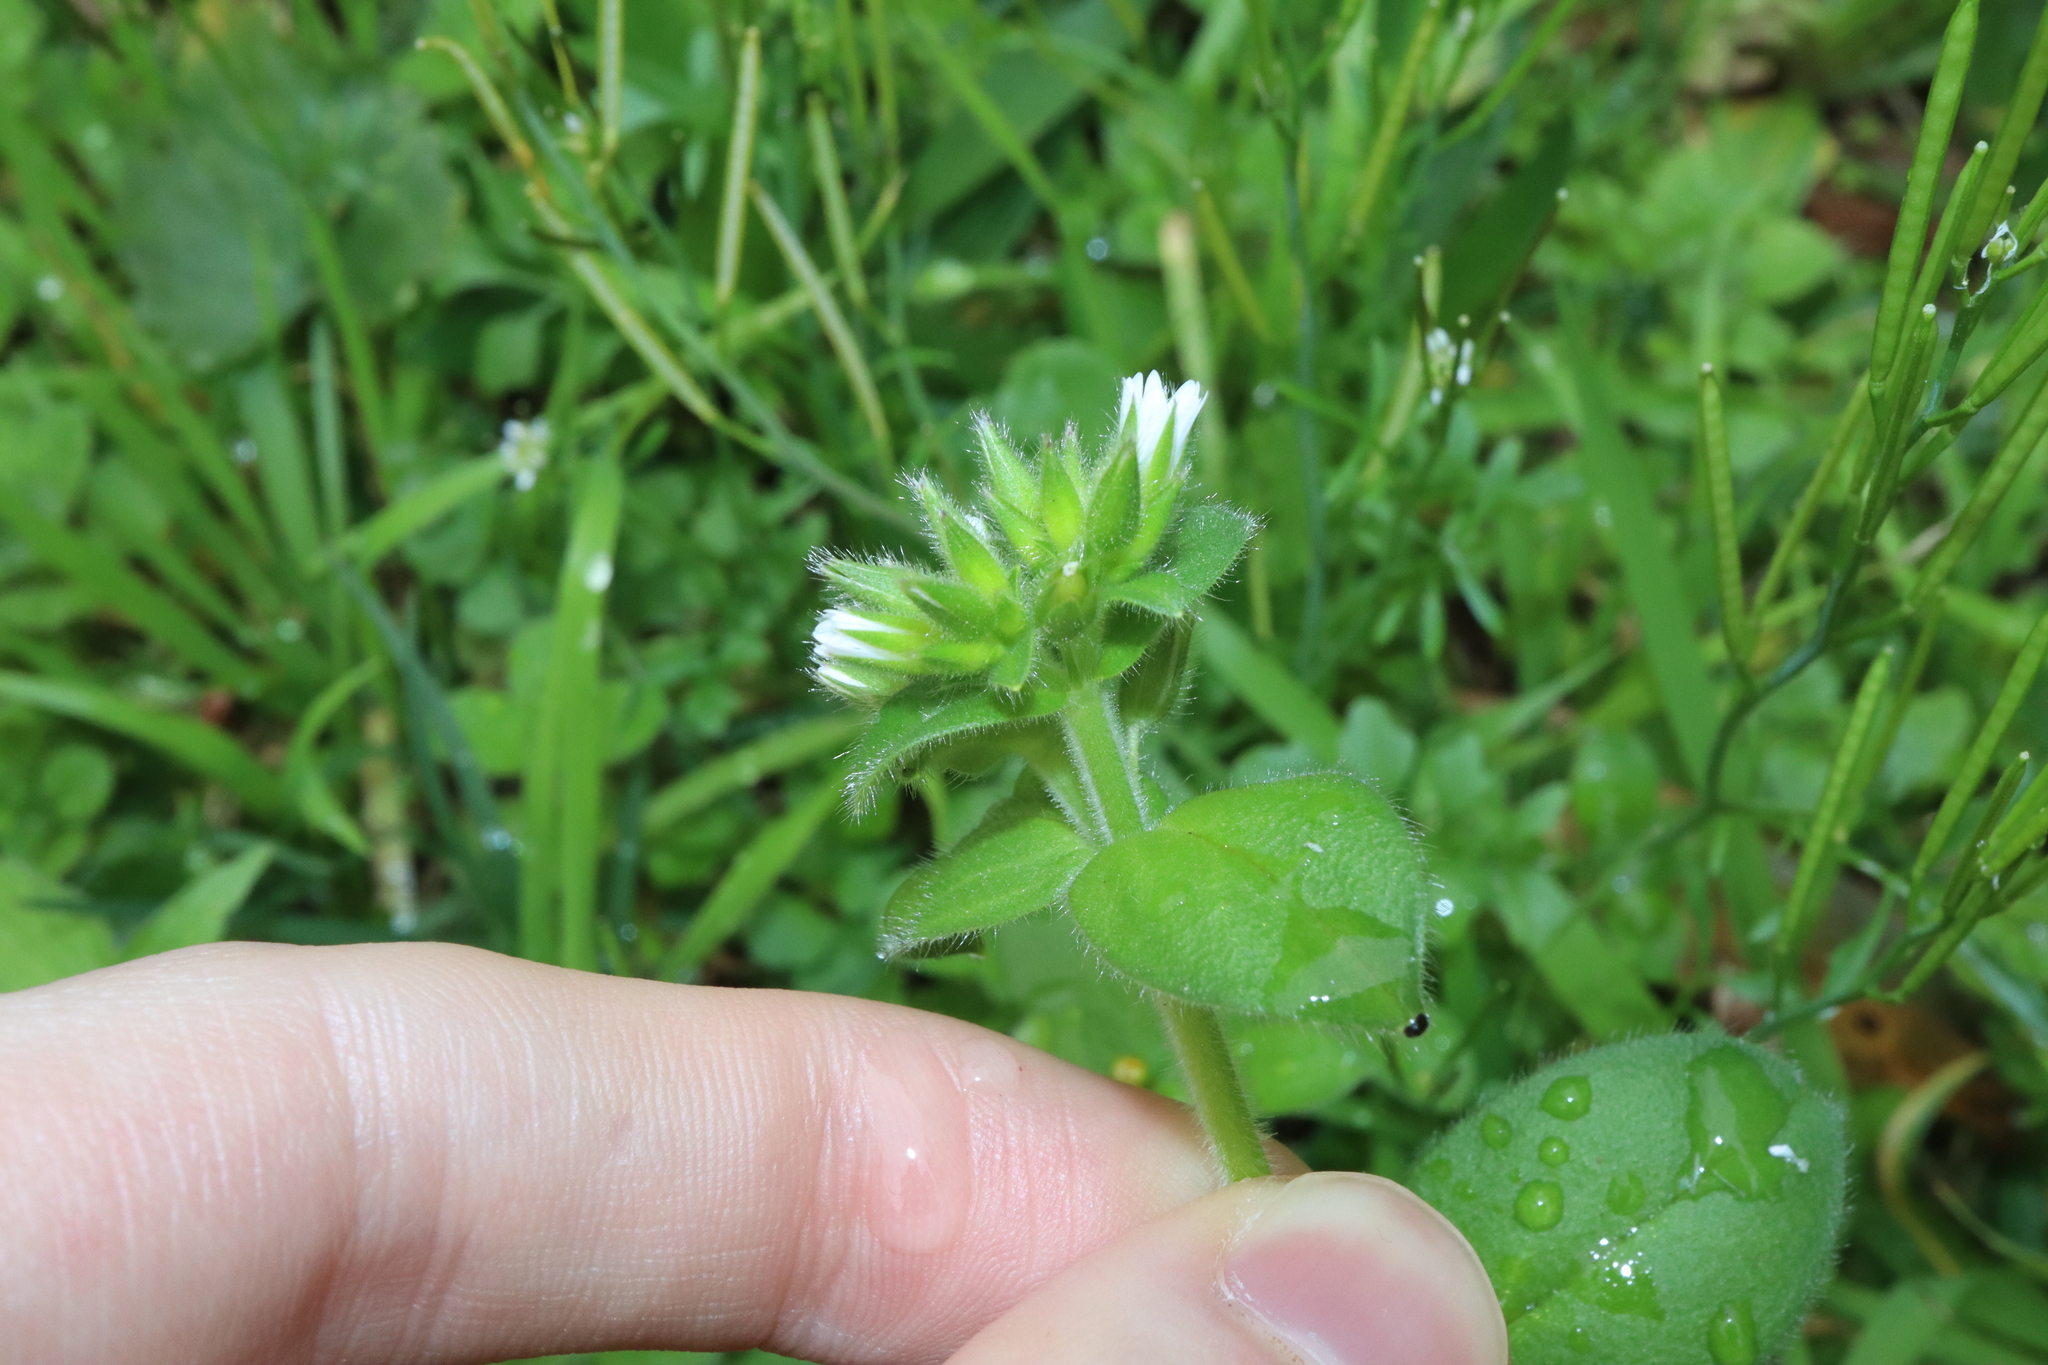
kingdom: Plantae
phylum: Tracheophyta
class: Magnoliopsida
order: Caryophyllales
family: Caryophyllaceae
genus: Cerastium
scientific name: Cerastium glomeratum
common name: Sticky chickweed
